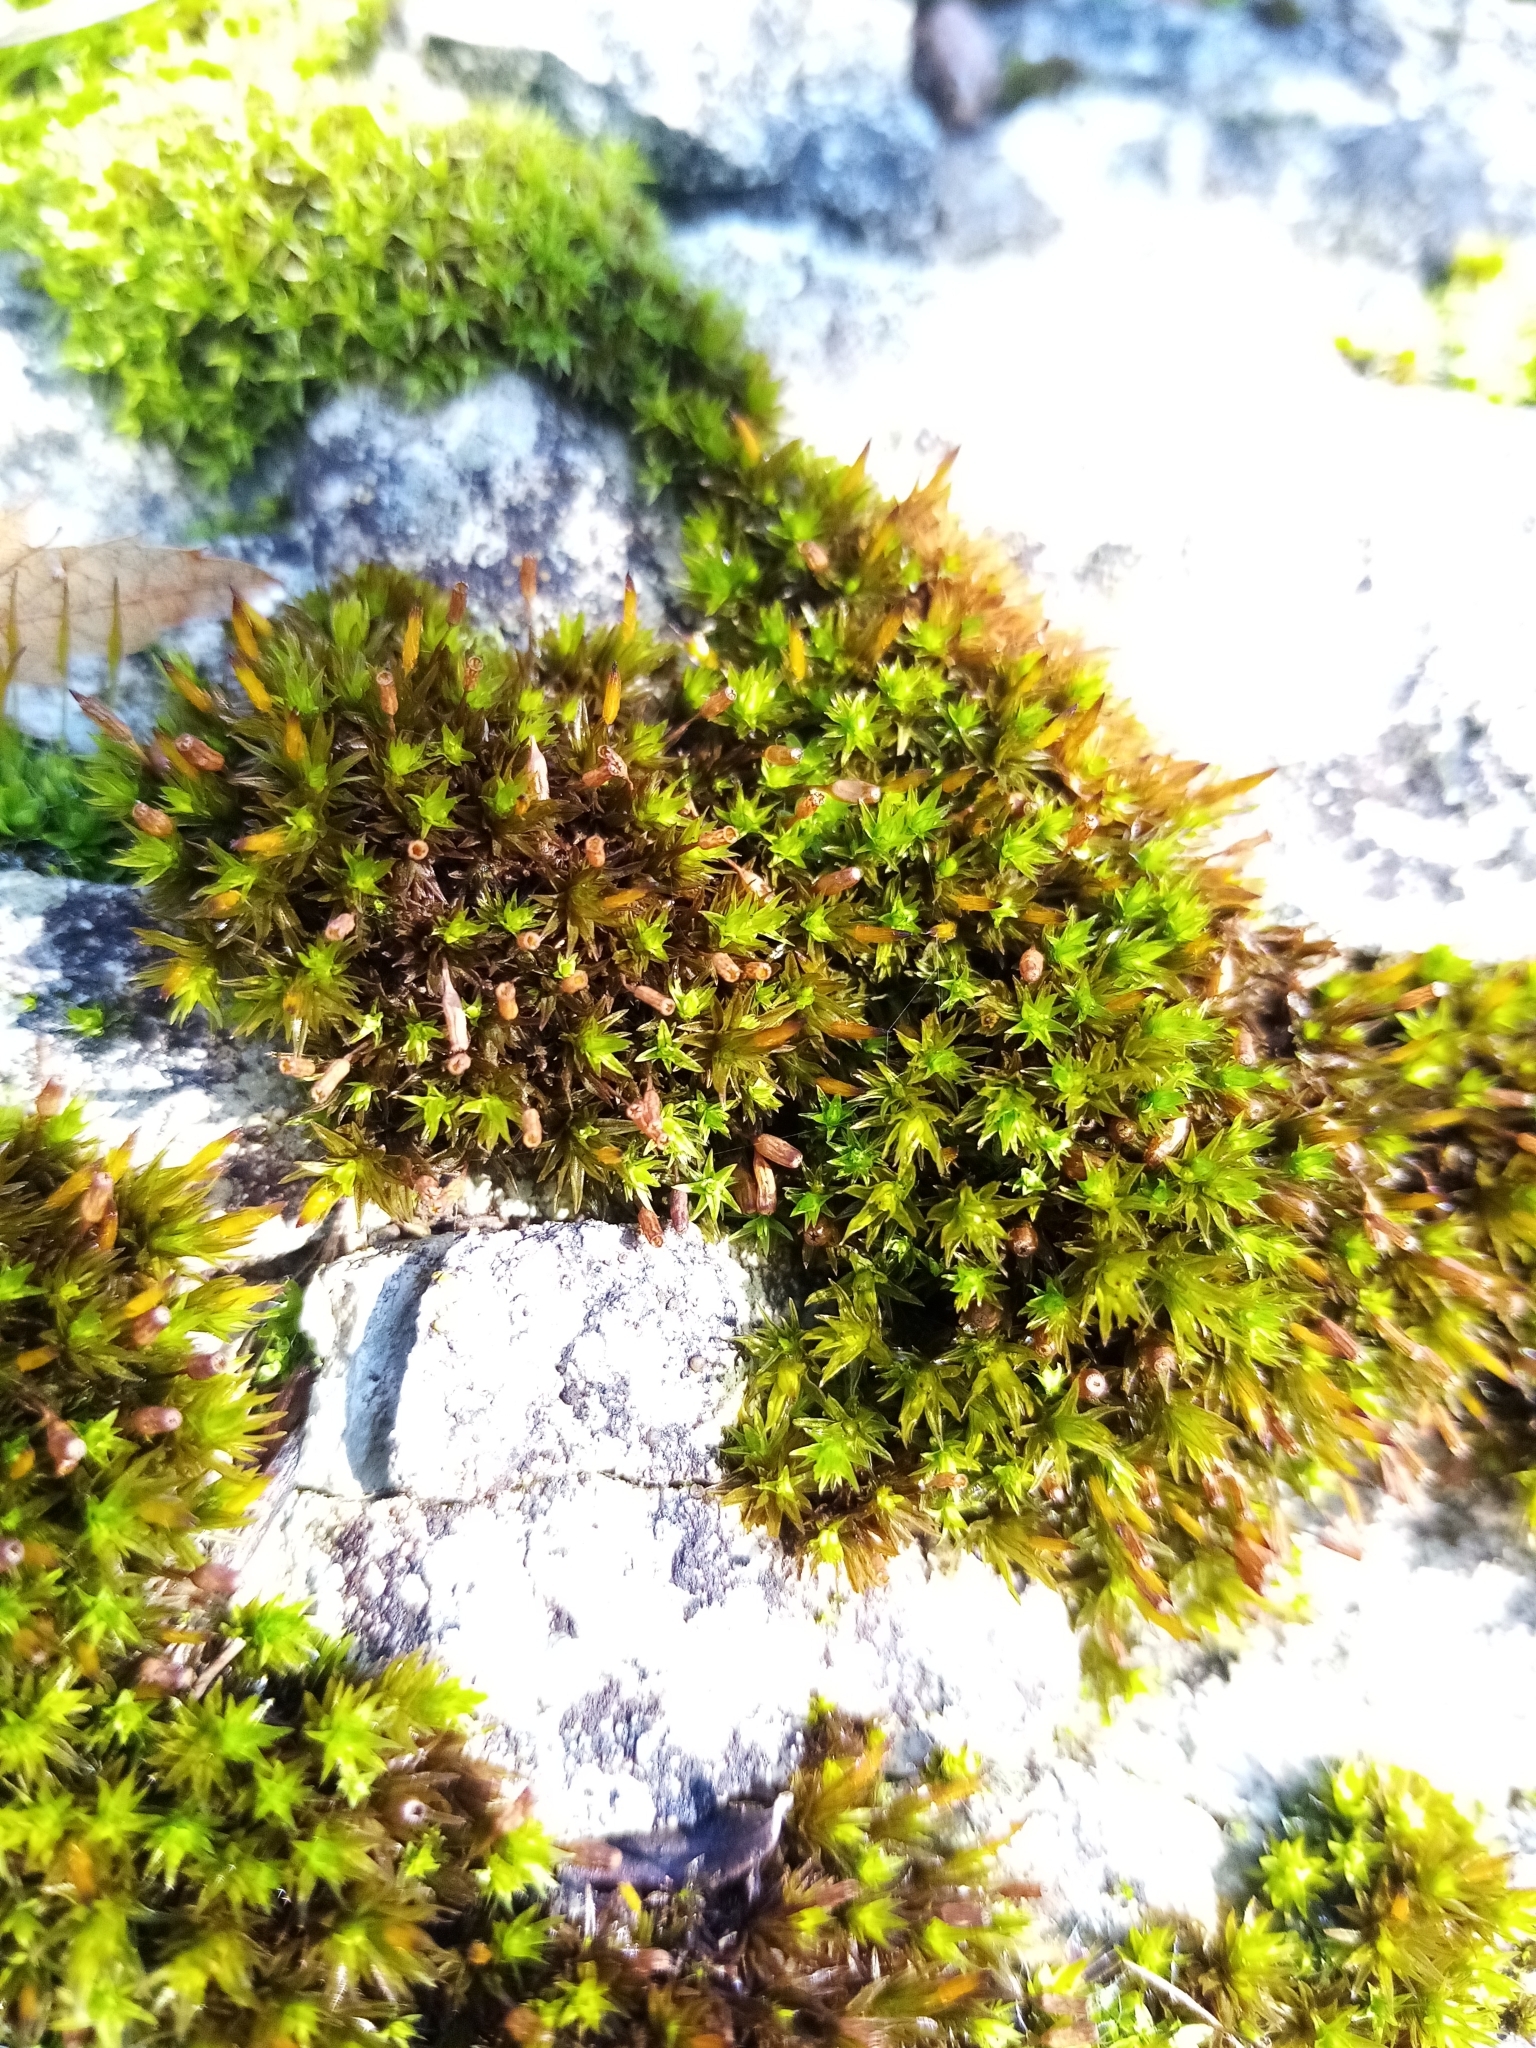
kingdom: Plantae
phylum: Bryophyta
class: Bryopsida
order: Orthotrichales
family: Orthotrichaceae
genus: Orthotrichum
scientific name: Orthotrichum anomalum
